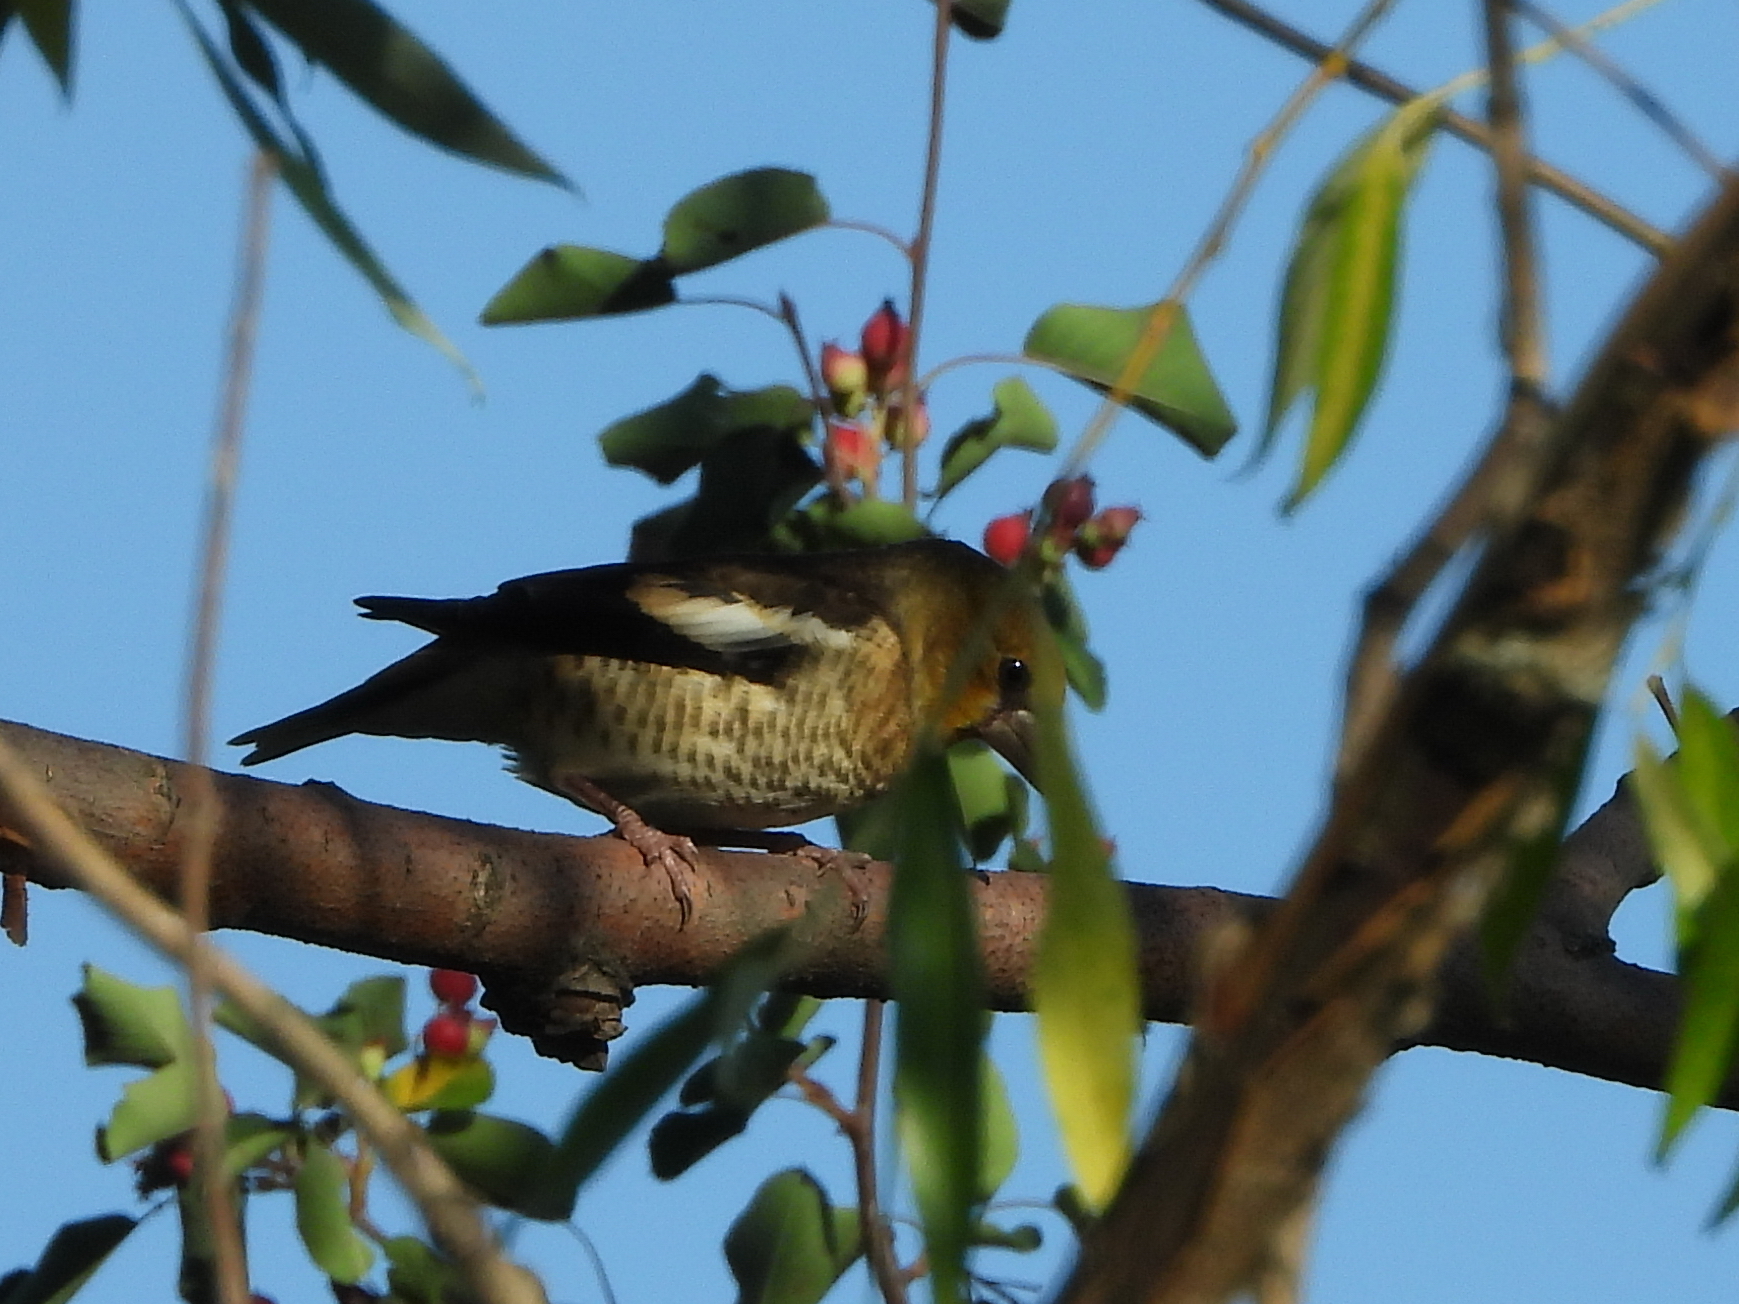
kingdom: Animalia
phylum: Chordata
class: Aves
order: Passeriformes
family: Fringillidae
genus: Coccothraustes
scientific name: Coccothraustes coccothraustes
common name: Hawfinch
